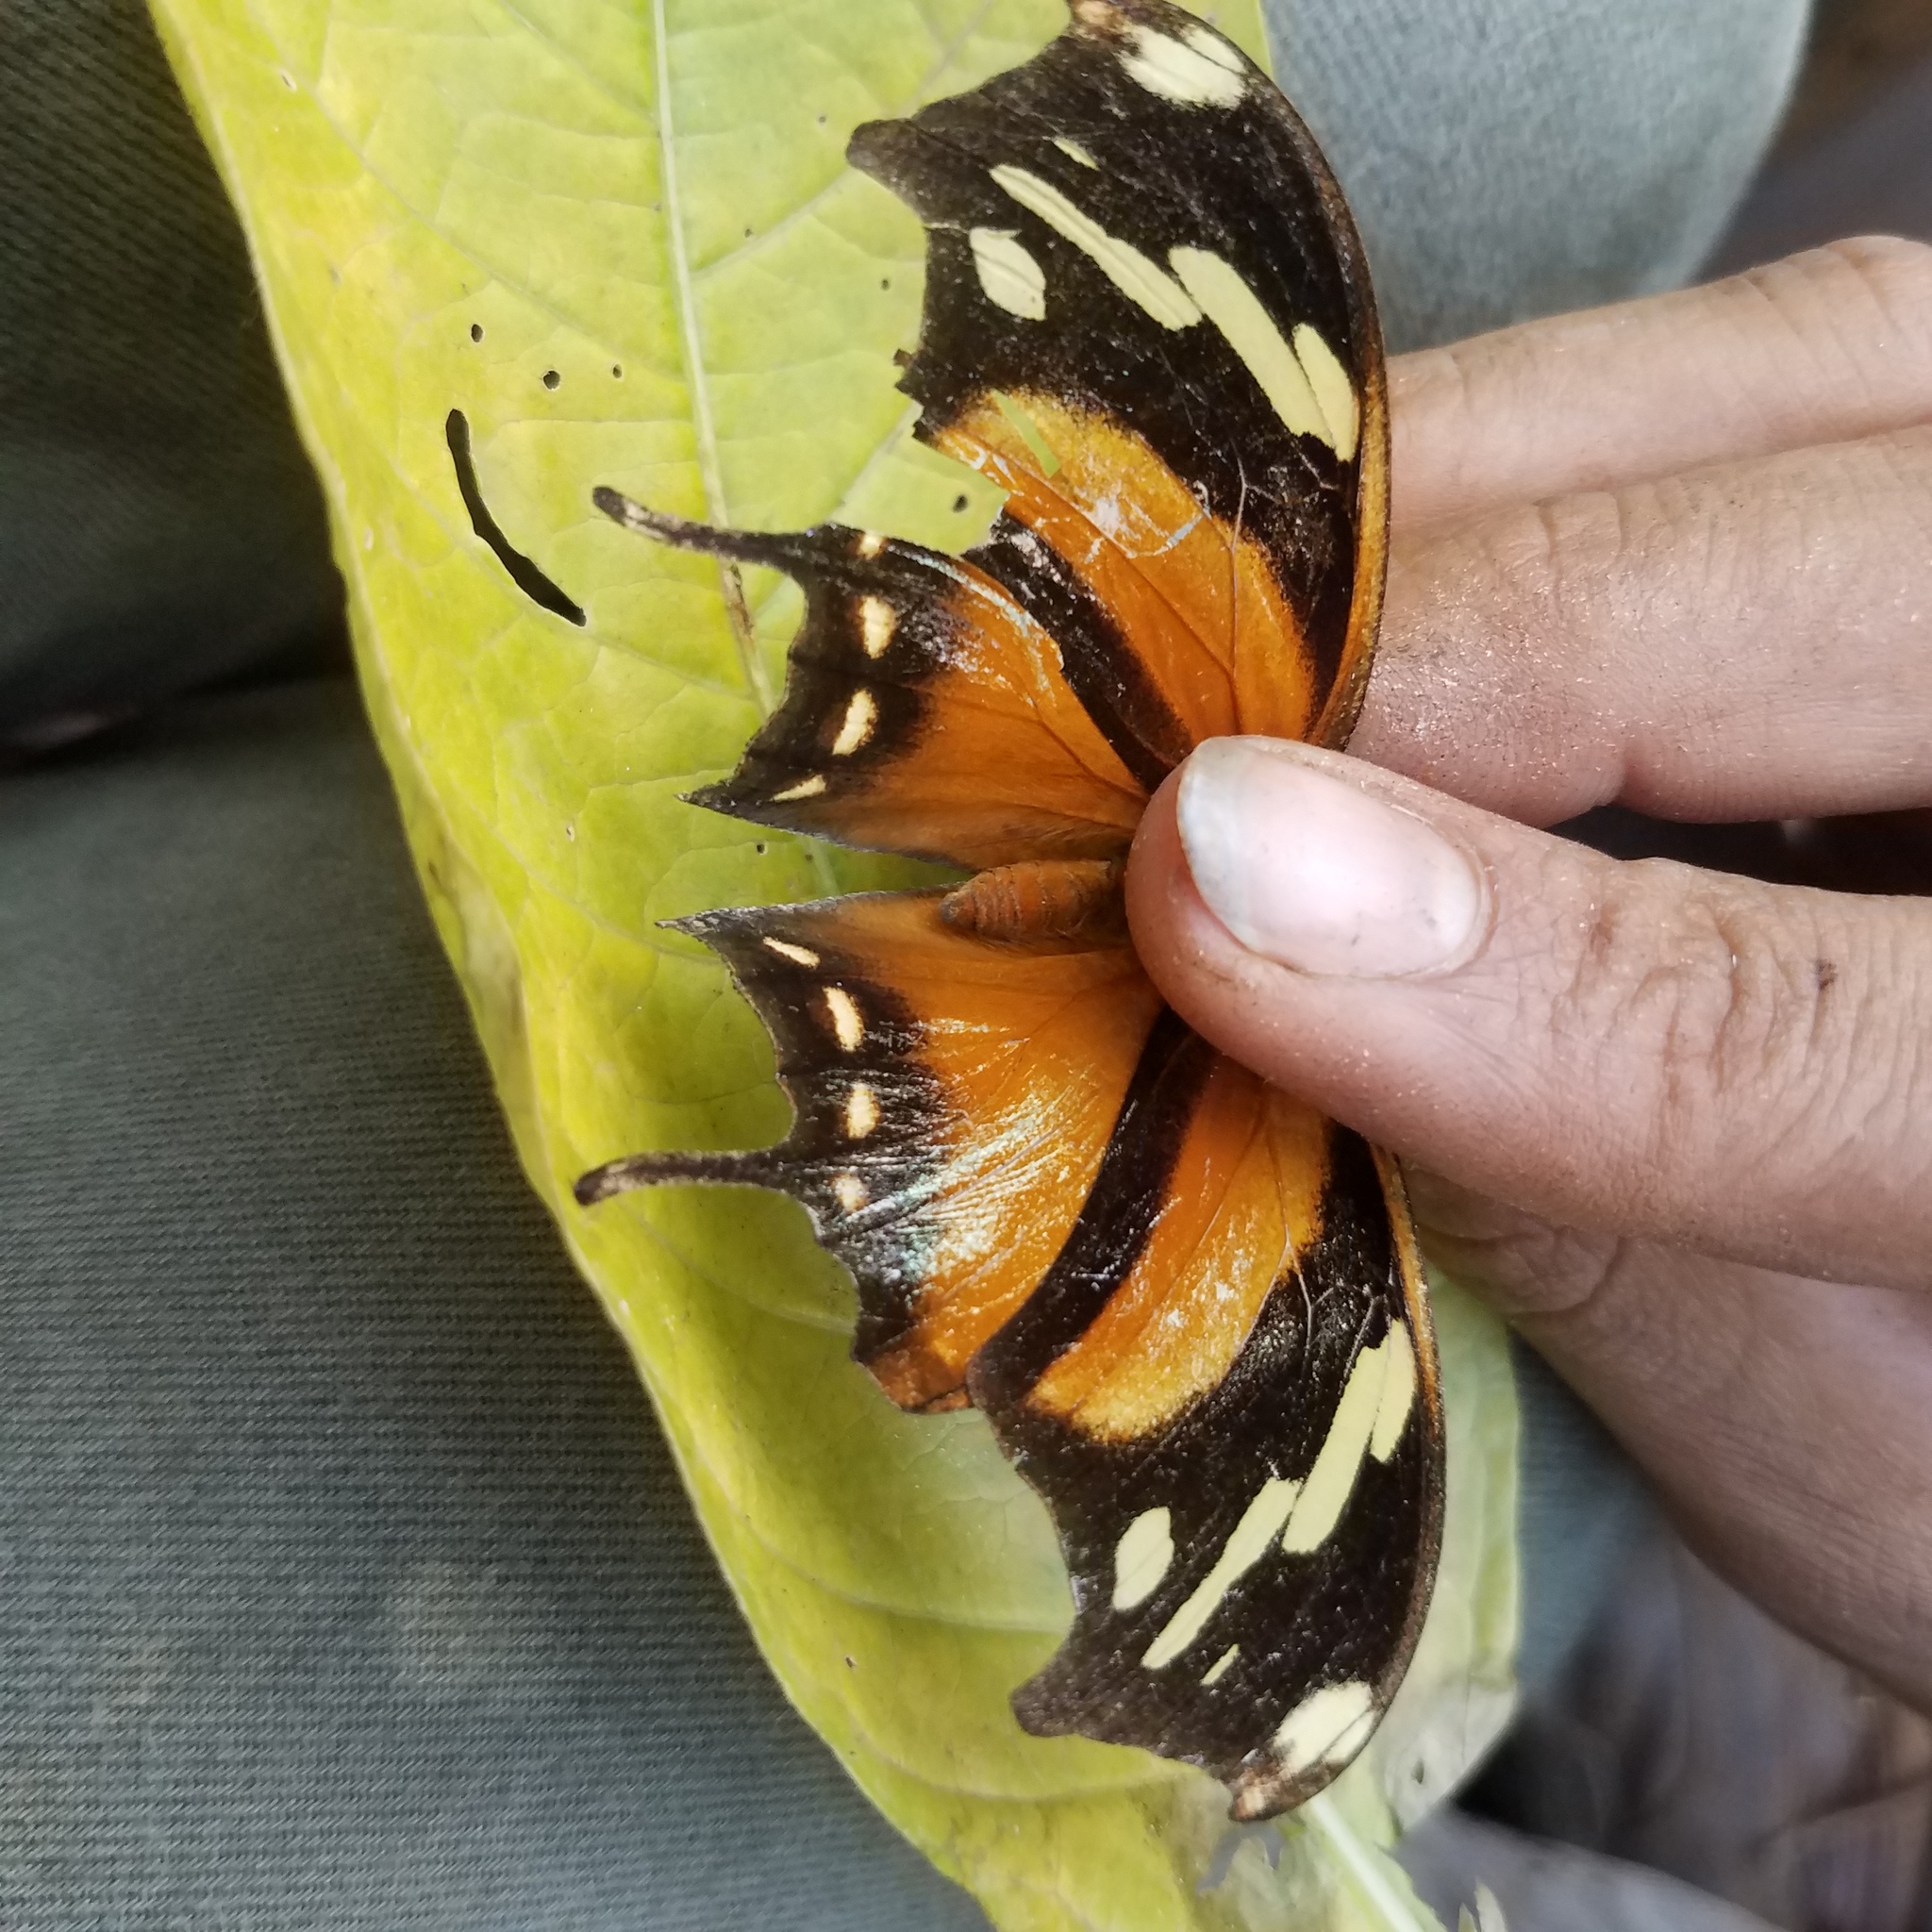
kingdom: Animalia
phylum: Arthropoda
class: Insecta
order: Lepidoptera
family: Nymphalidae
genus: Consul
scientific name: Consul fabius
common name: Tiger leafwing
